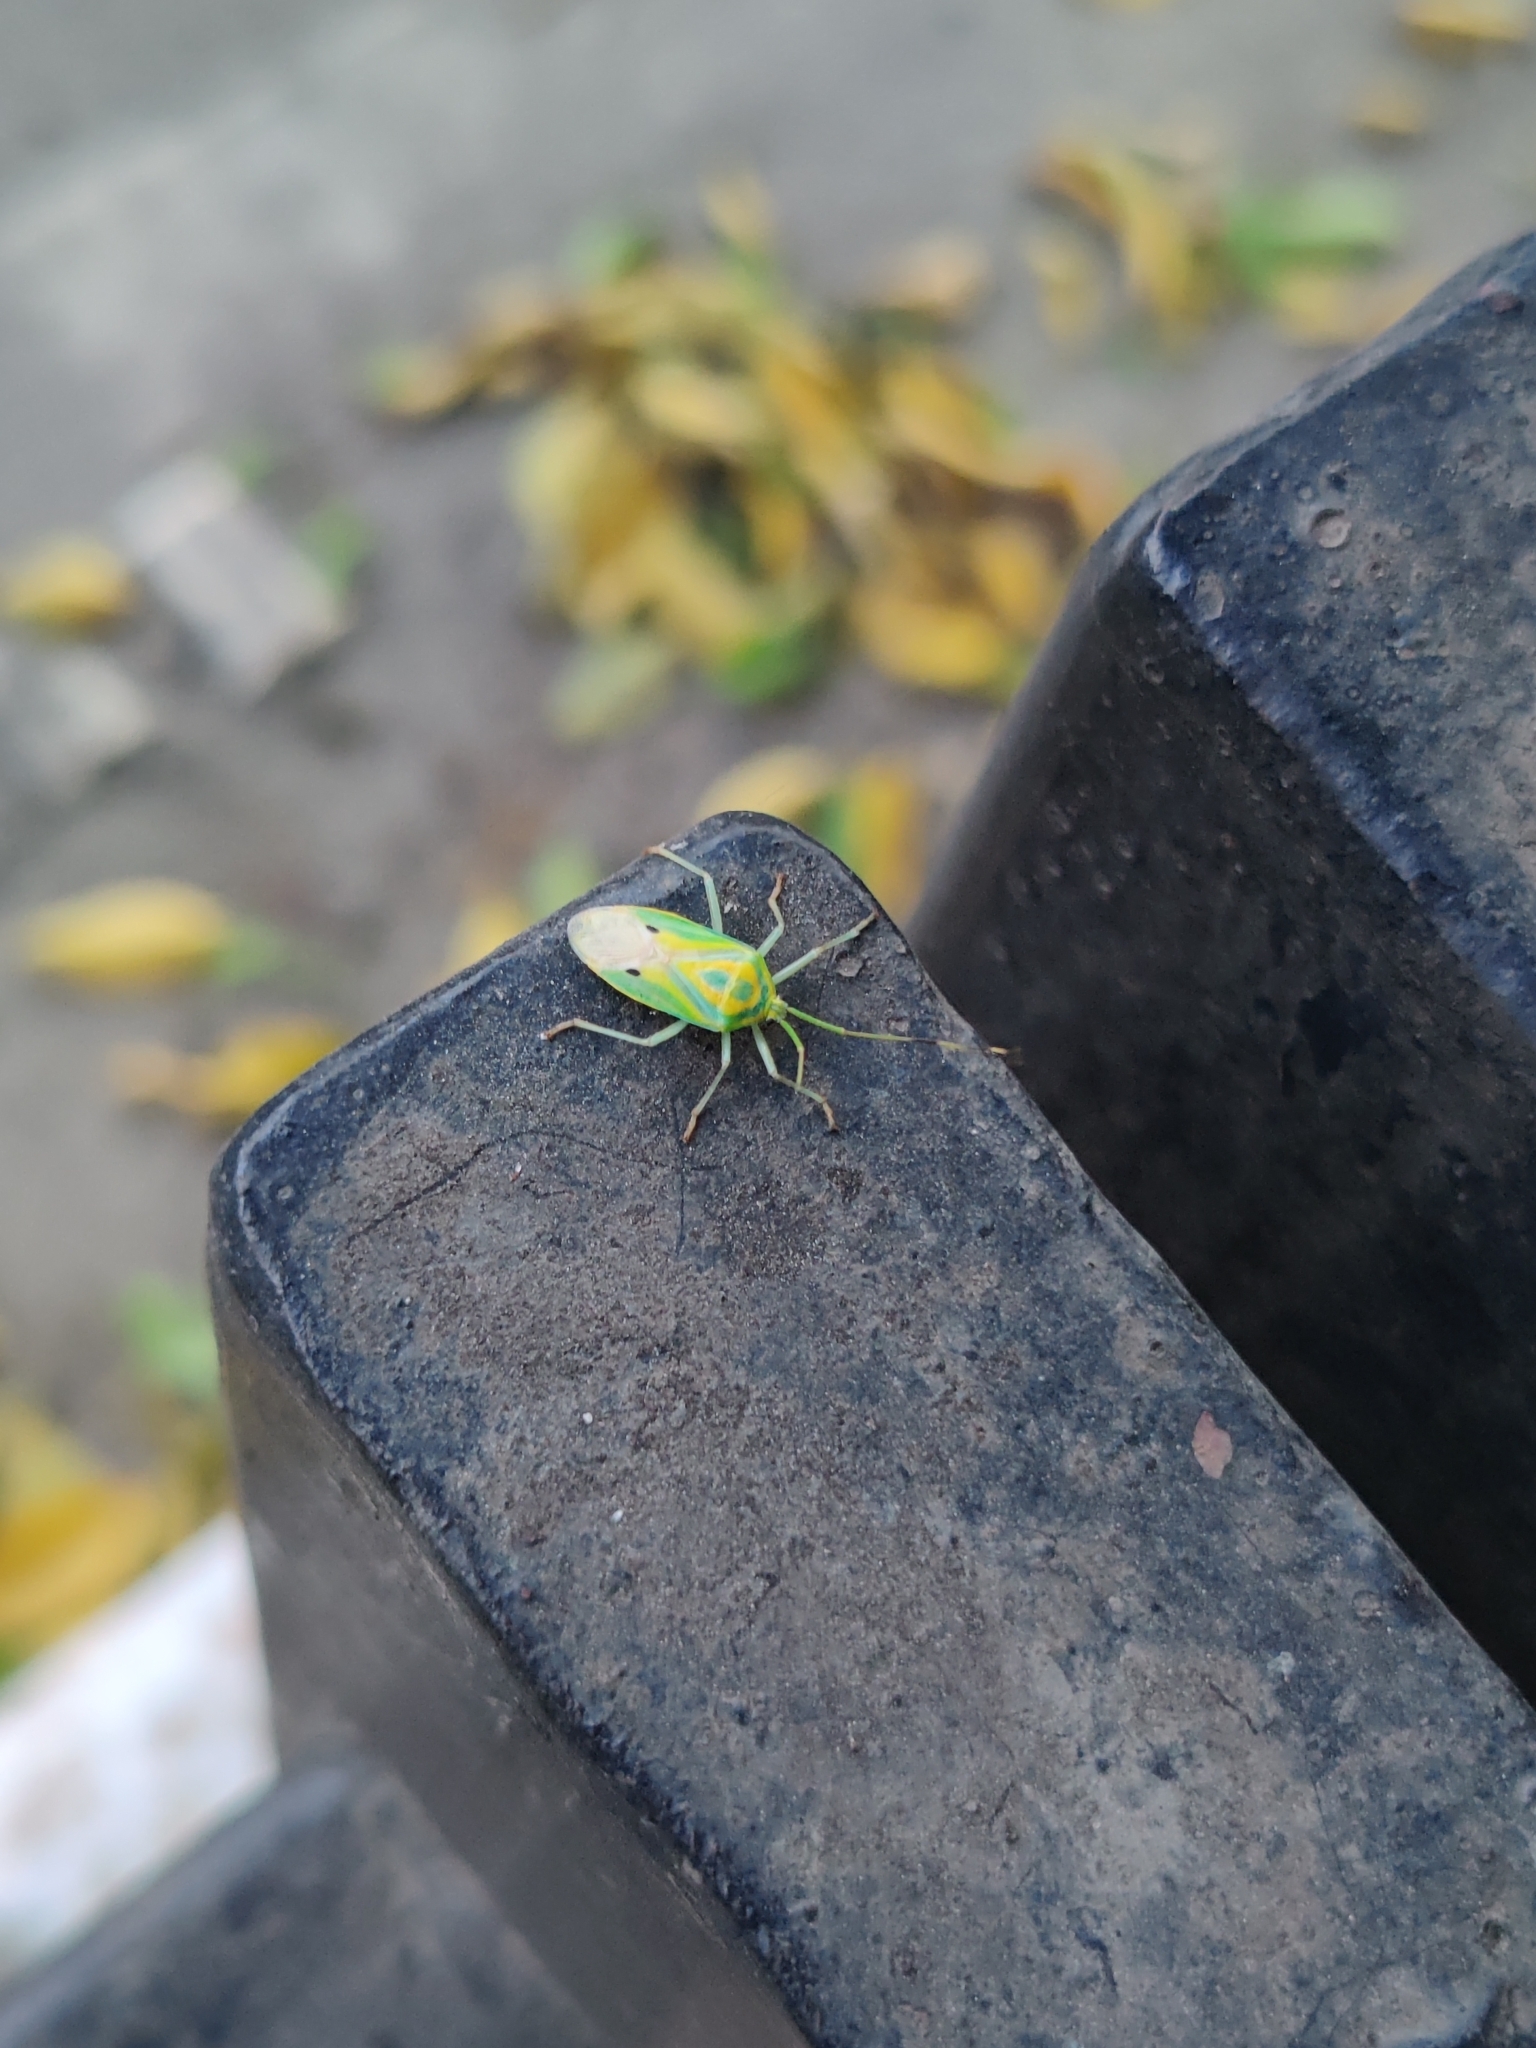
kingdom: Animalia
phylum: Arthropoda
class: Insecta
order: Hemiptera
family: Urostylididae
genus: Urolabida
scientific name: Urolabida
